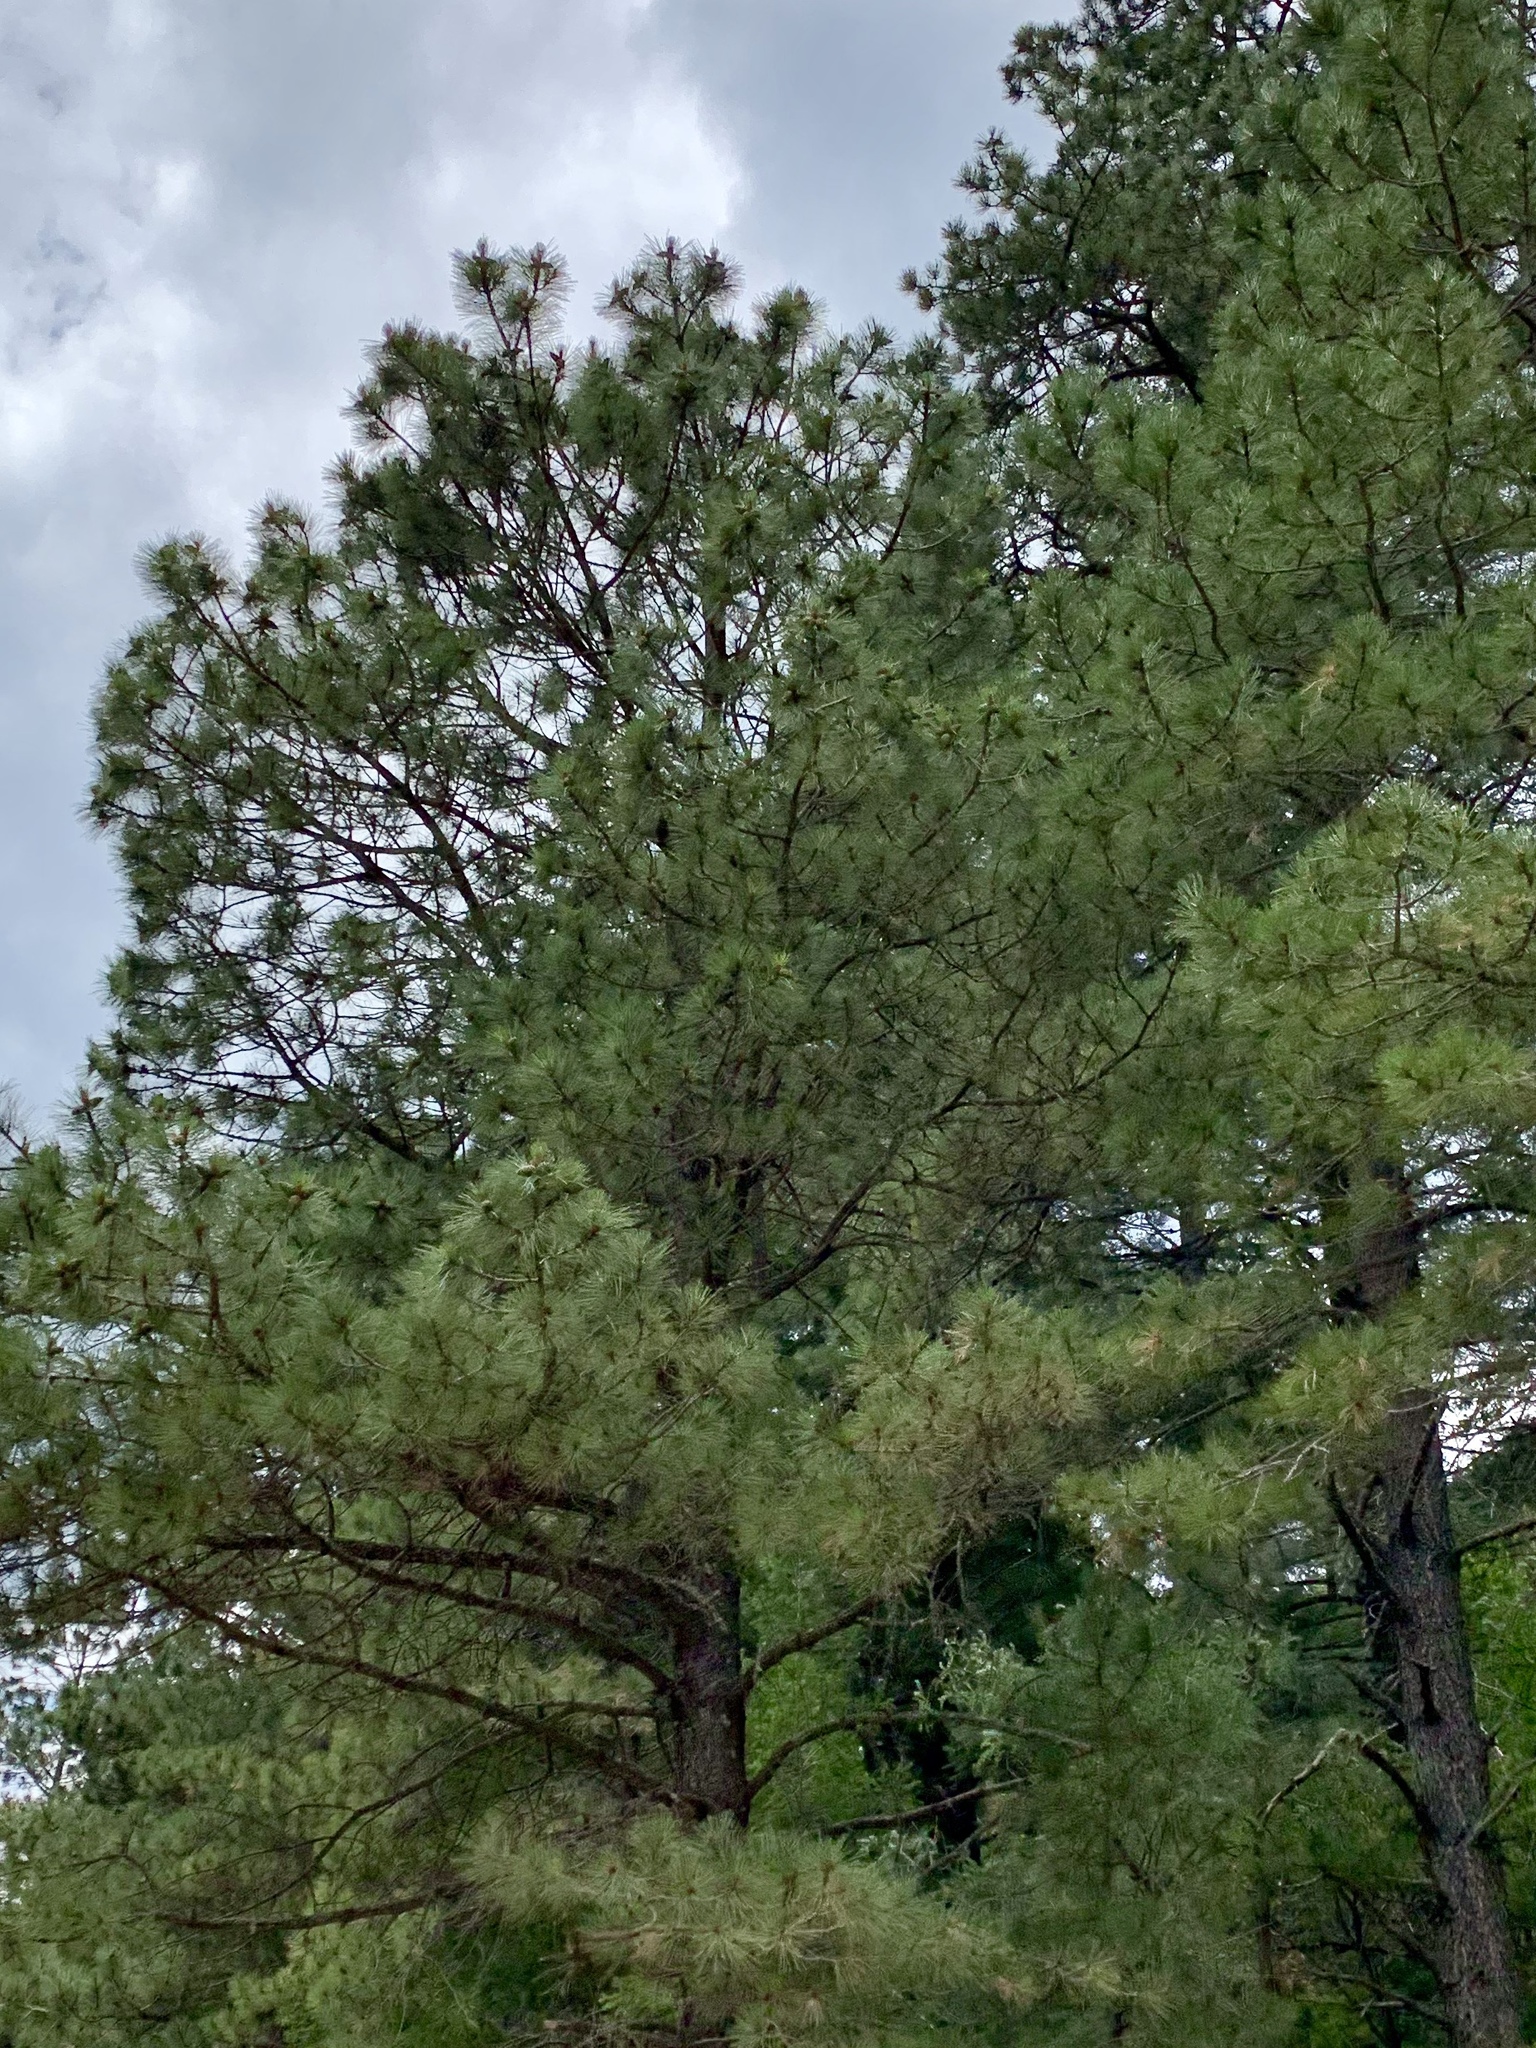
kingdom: Plantae
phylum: Tracheophyta
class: Pinopsida
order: Pinales
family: Pinaceae
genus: Pinus
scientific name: Pinus ponderosa
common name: Western yellow-pine
